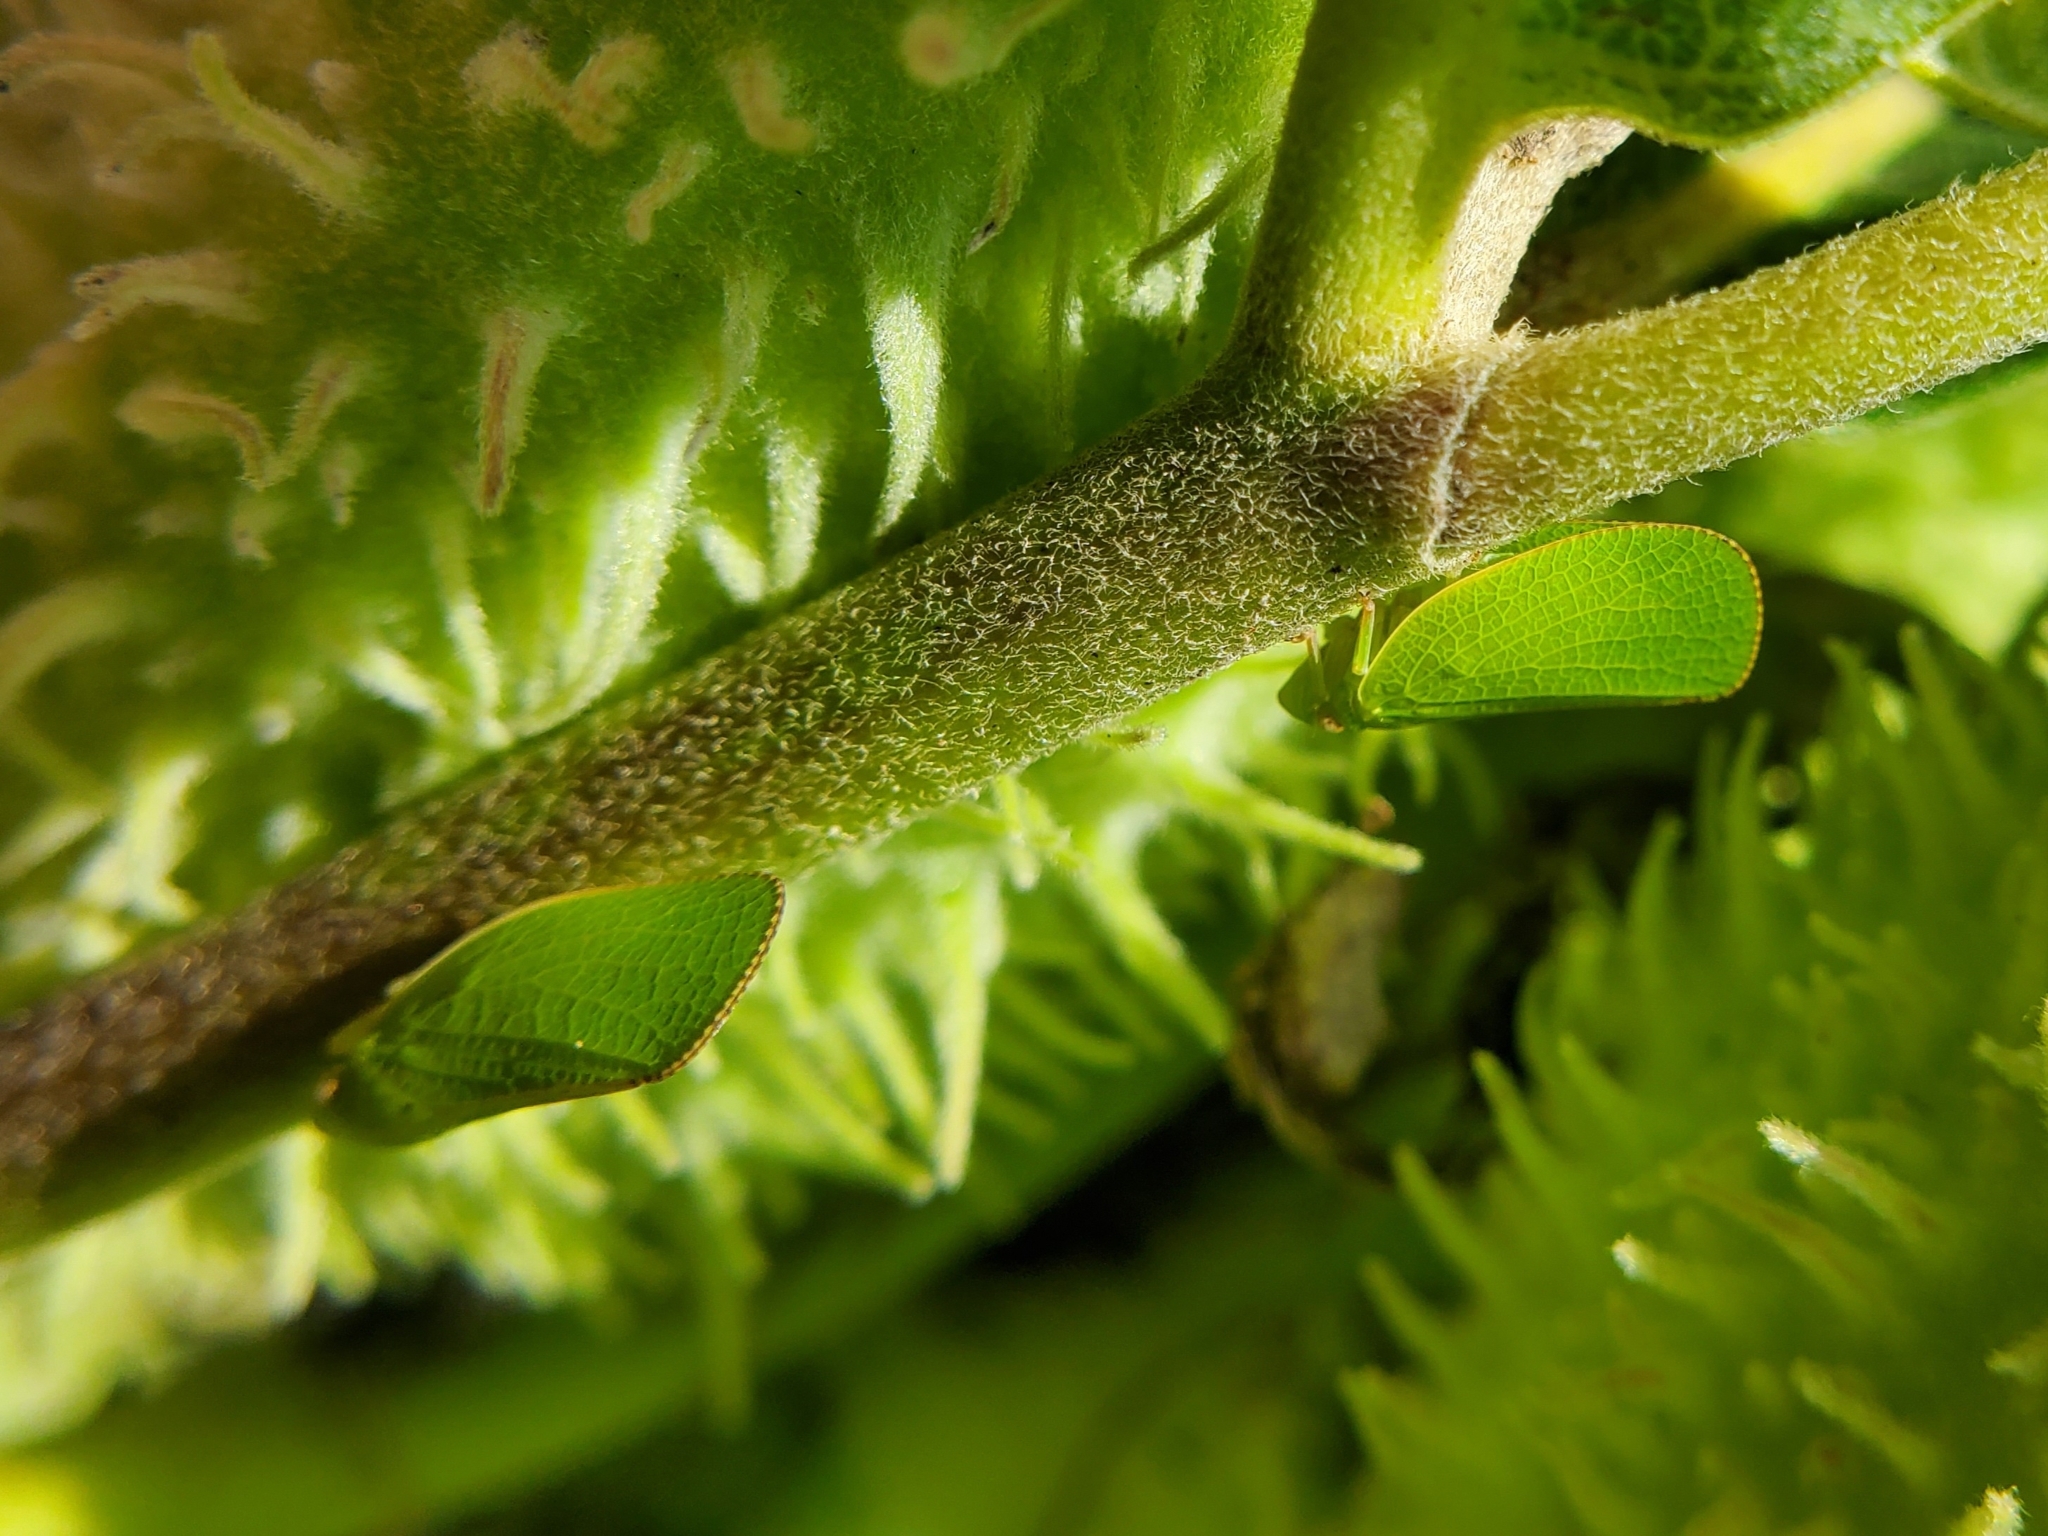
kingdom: Animalia
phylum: Arthropoda
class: Insecta
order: Hemiptera
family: Acanaloniidae
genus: Acanalonia
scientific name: Acanalonia conica
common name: Green cone-headed planthopper
